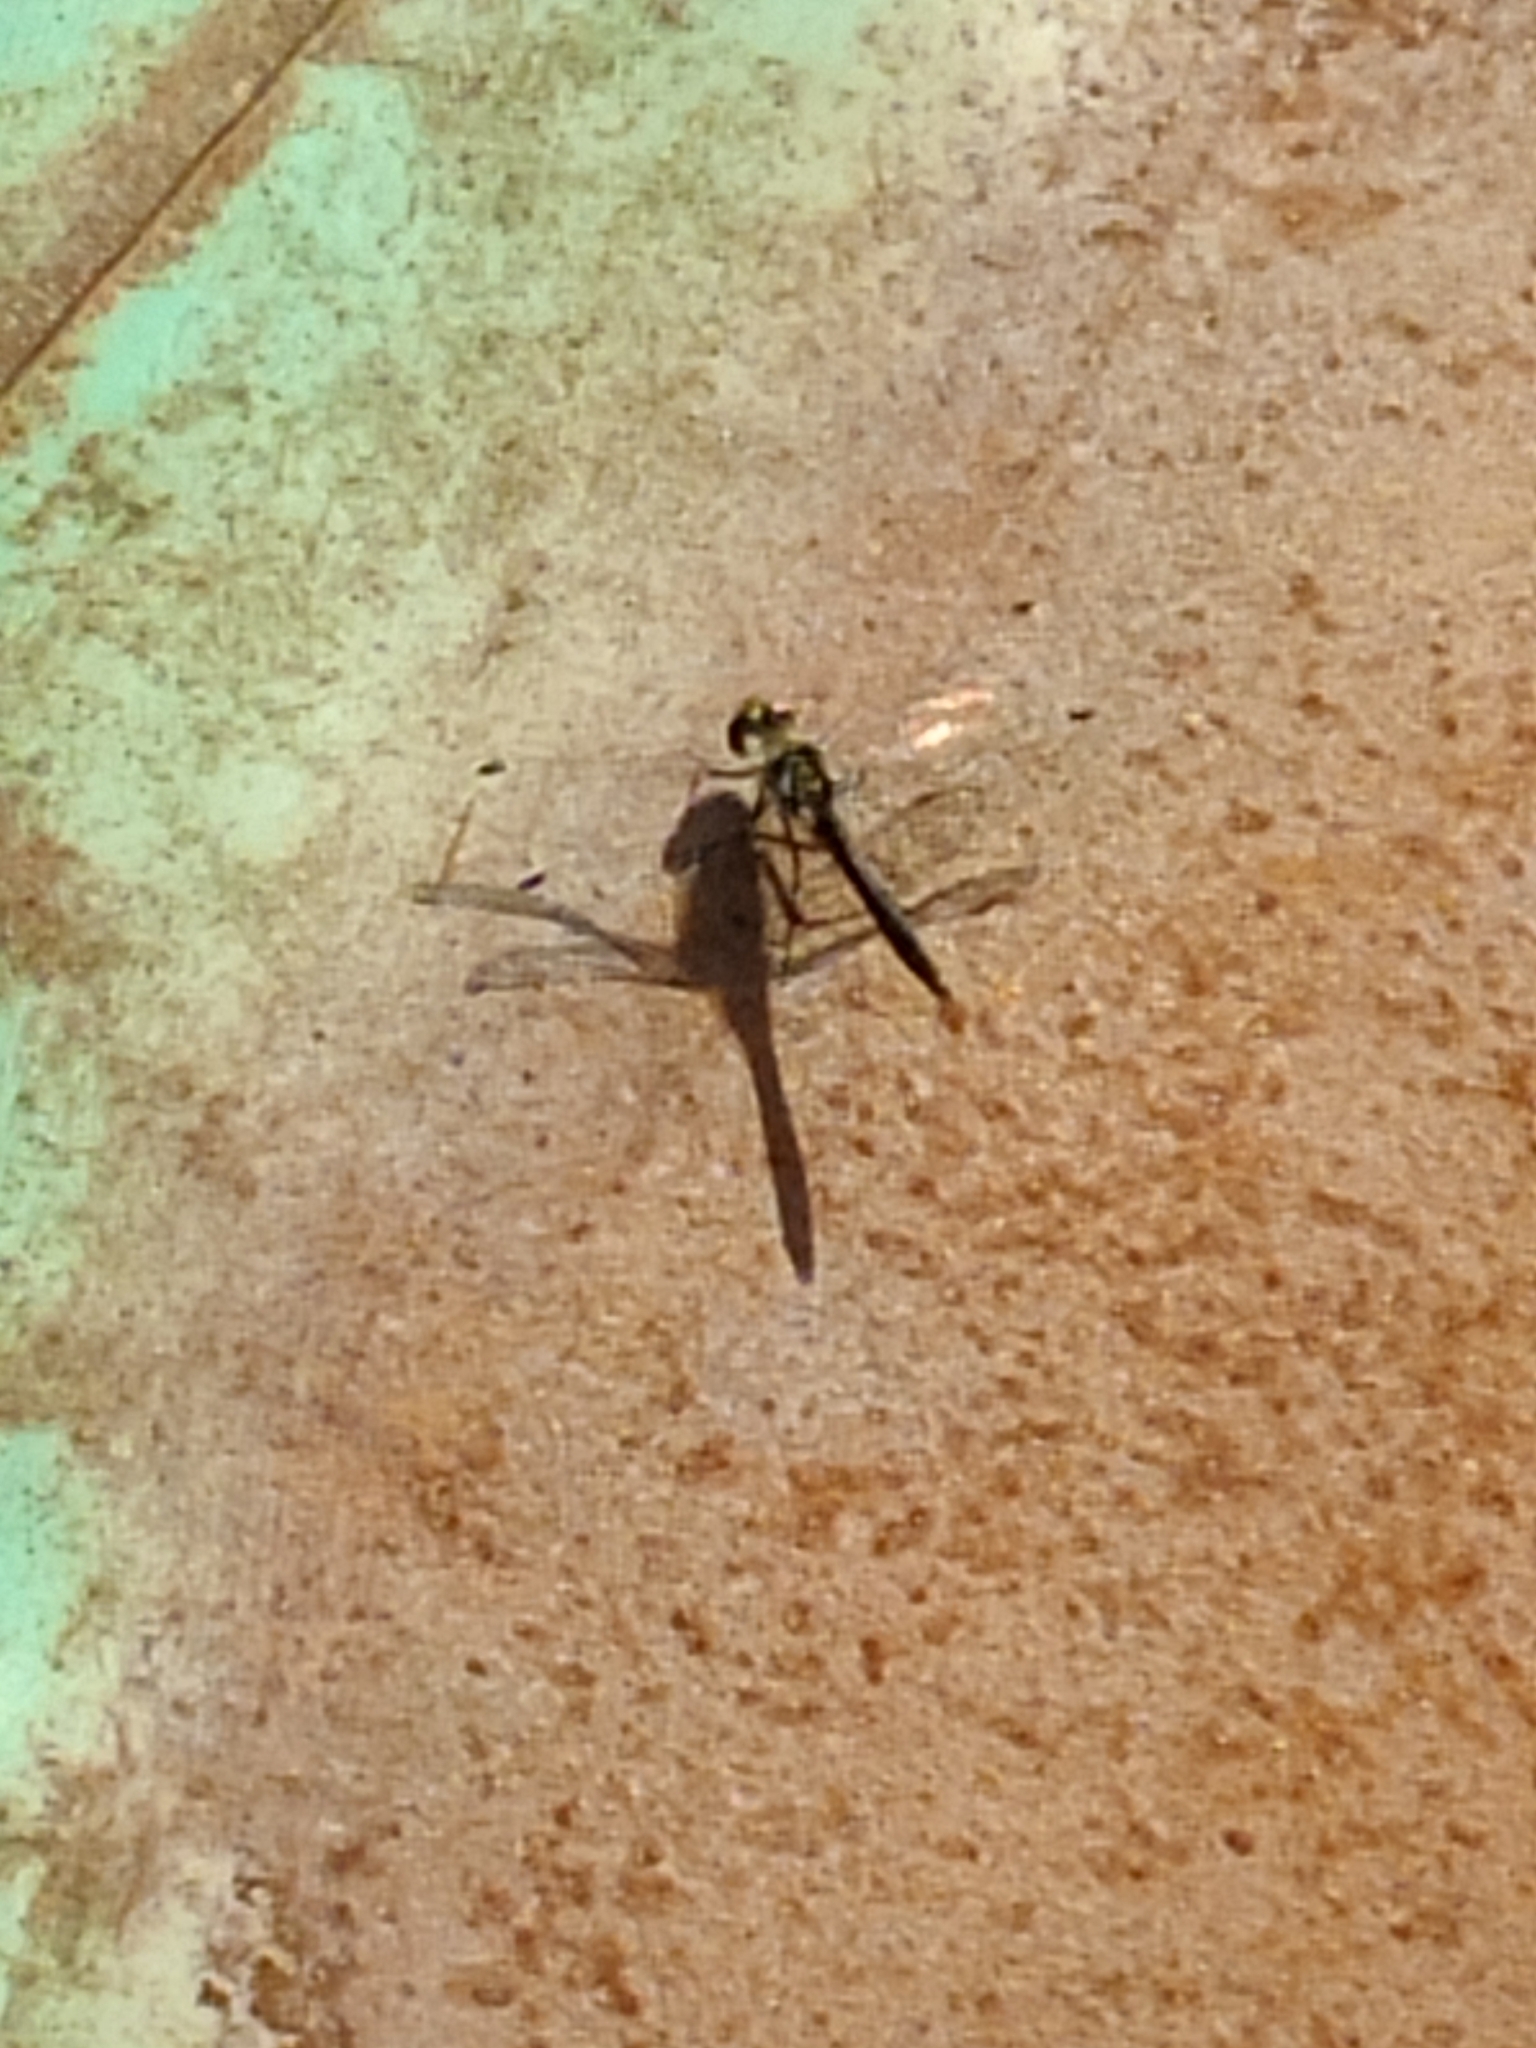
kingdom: Animalia
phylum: Arthropoda
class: Insecta
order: Odonata
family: Libellulidae
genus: Sympetrum
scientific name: Sympetrum danae
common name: Black darter
